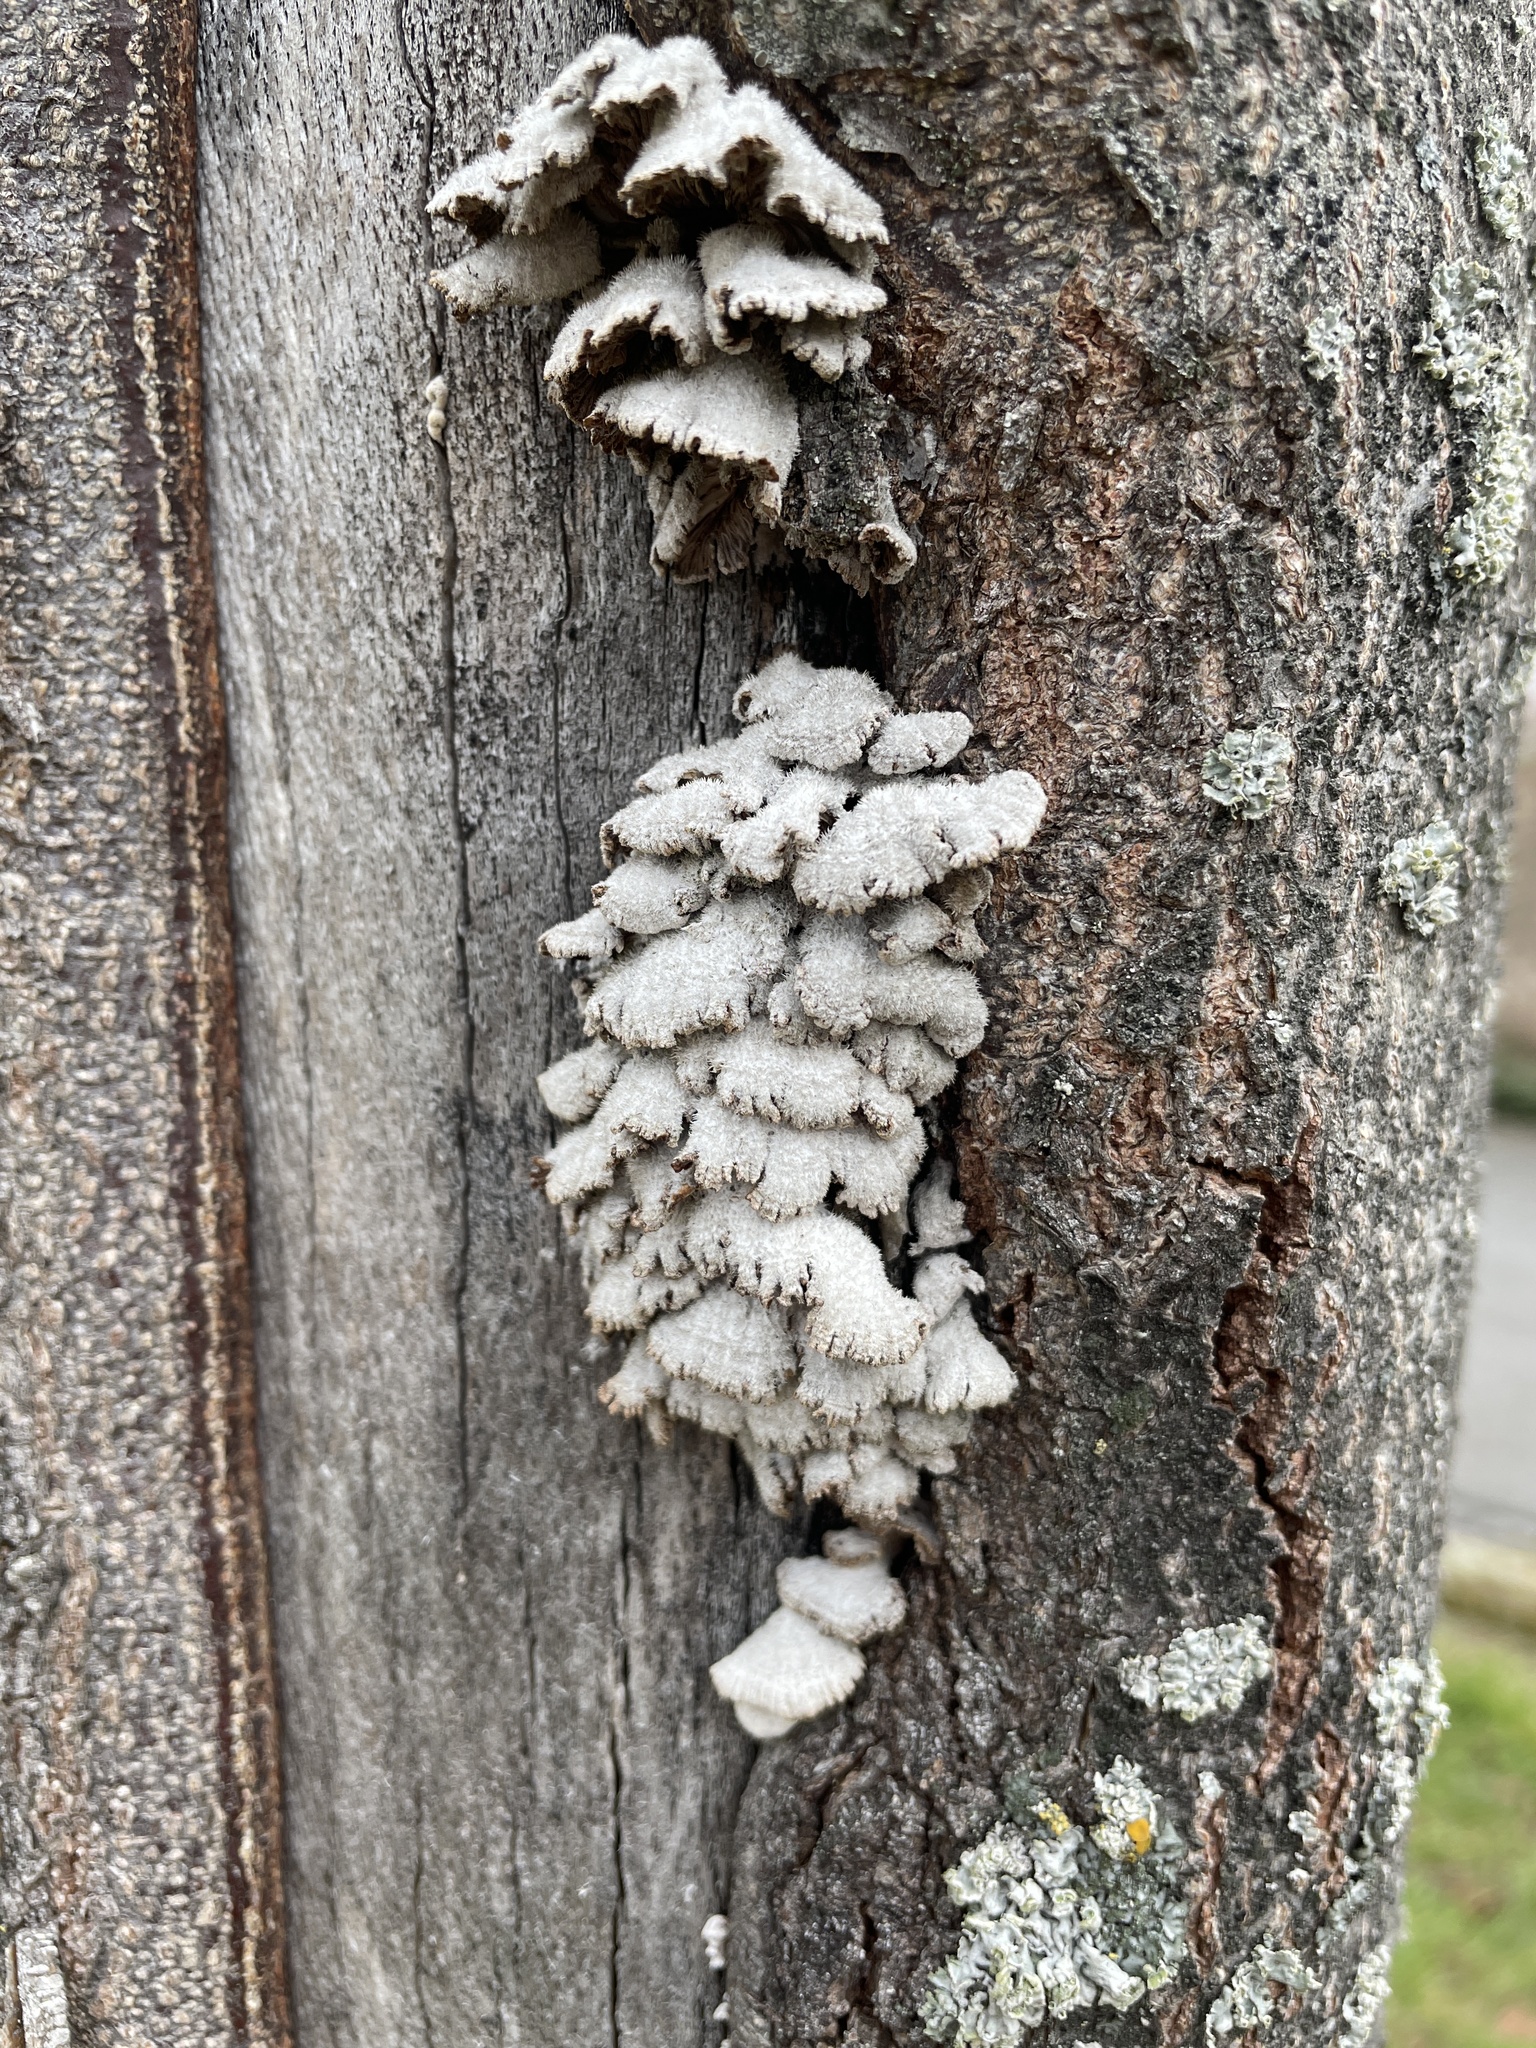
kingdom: Fungi
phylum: Basidiomycota
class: Agaricomycetes
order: Agaricales
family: Schizophyllaceae
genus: Schizophyllum
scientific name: Schizophyllum commune
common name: Common porecrust
